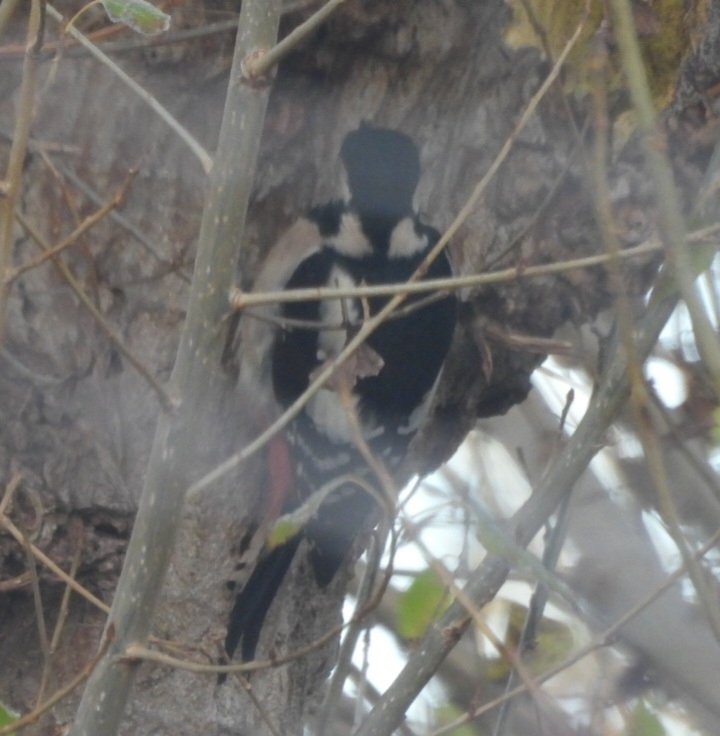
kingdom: Animalia
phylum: Chordata
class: Aves
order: Piciformes
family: Picidae
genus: Dendrocopos
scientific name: Dendrocopos major
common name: Great spotted woodpecker
